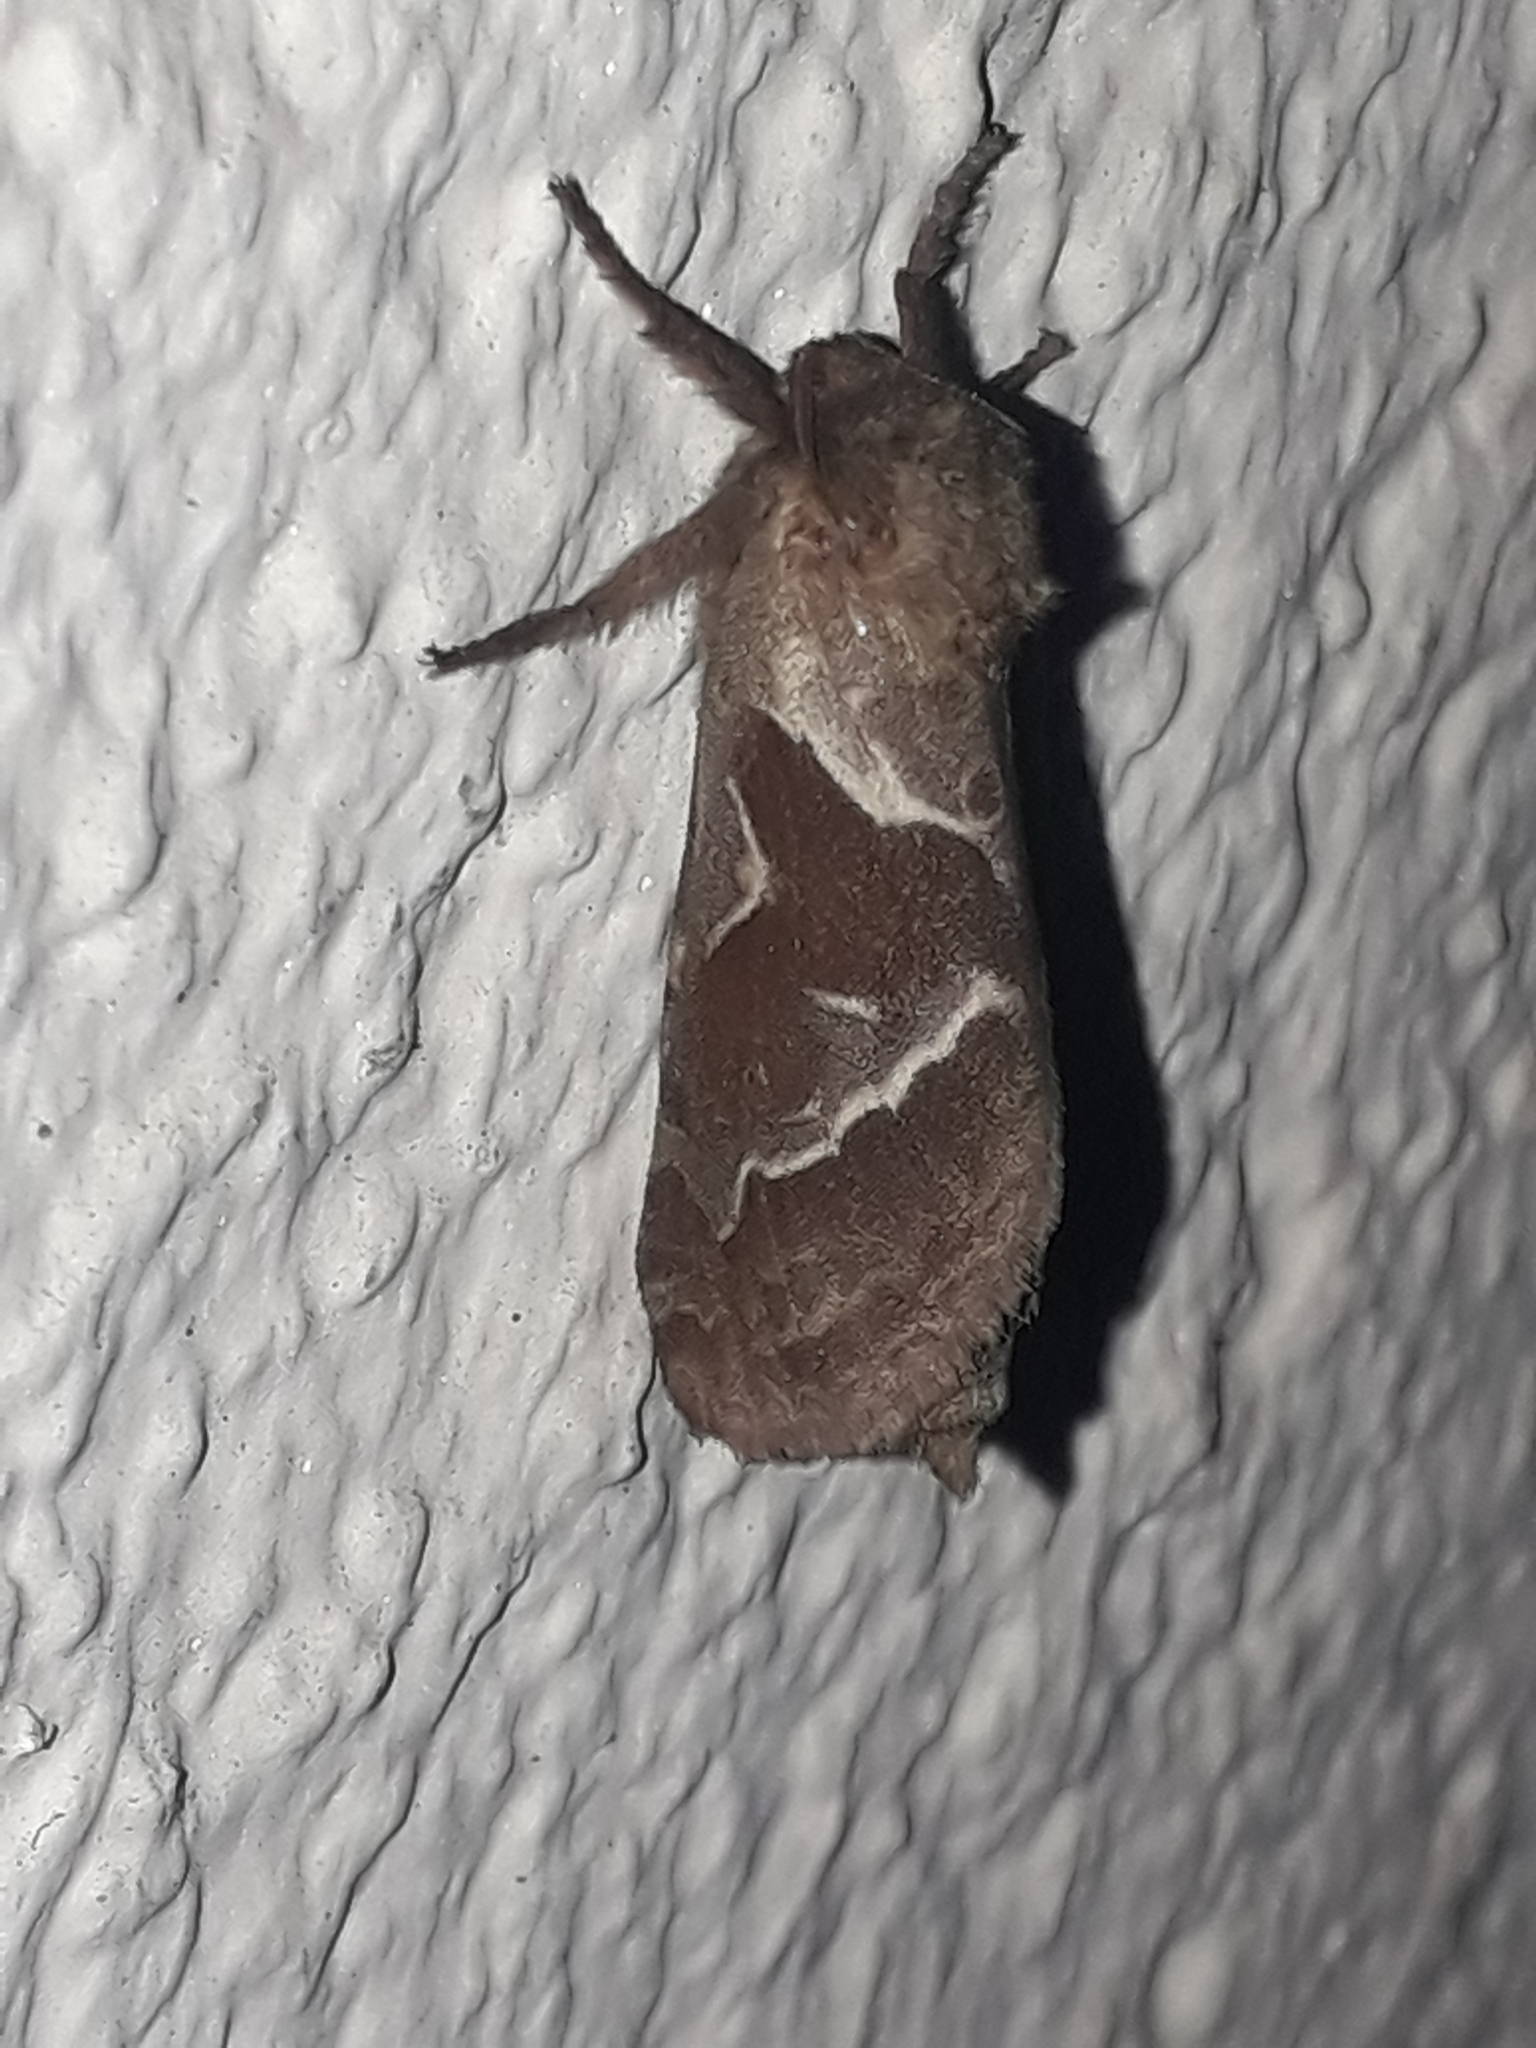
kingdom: Animalia
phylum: Arthropoda
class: Insecta
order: Lepidoptera
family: Hepialidae
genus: Triodia
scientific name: Triodia sylvina
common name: Orange swift
